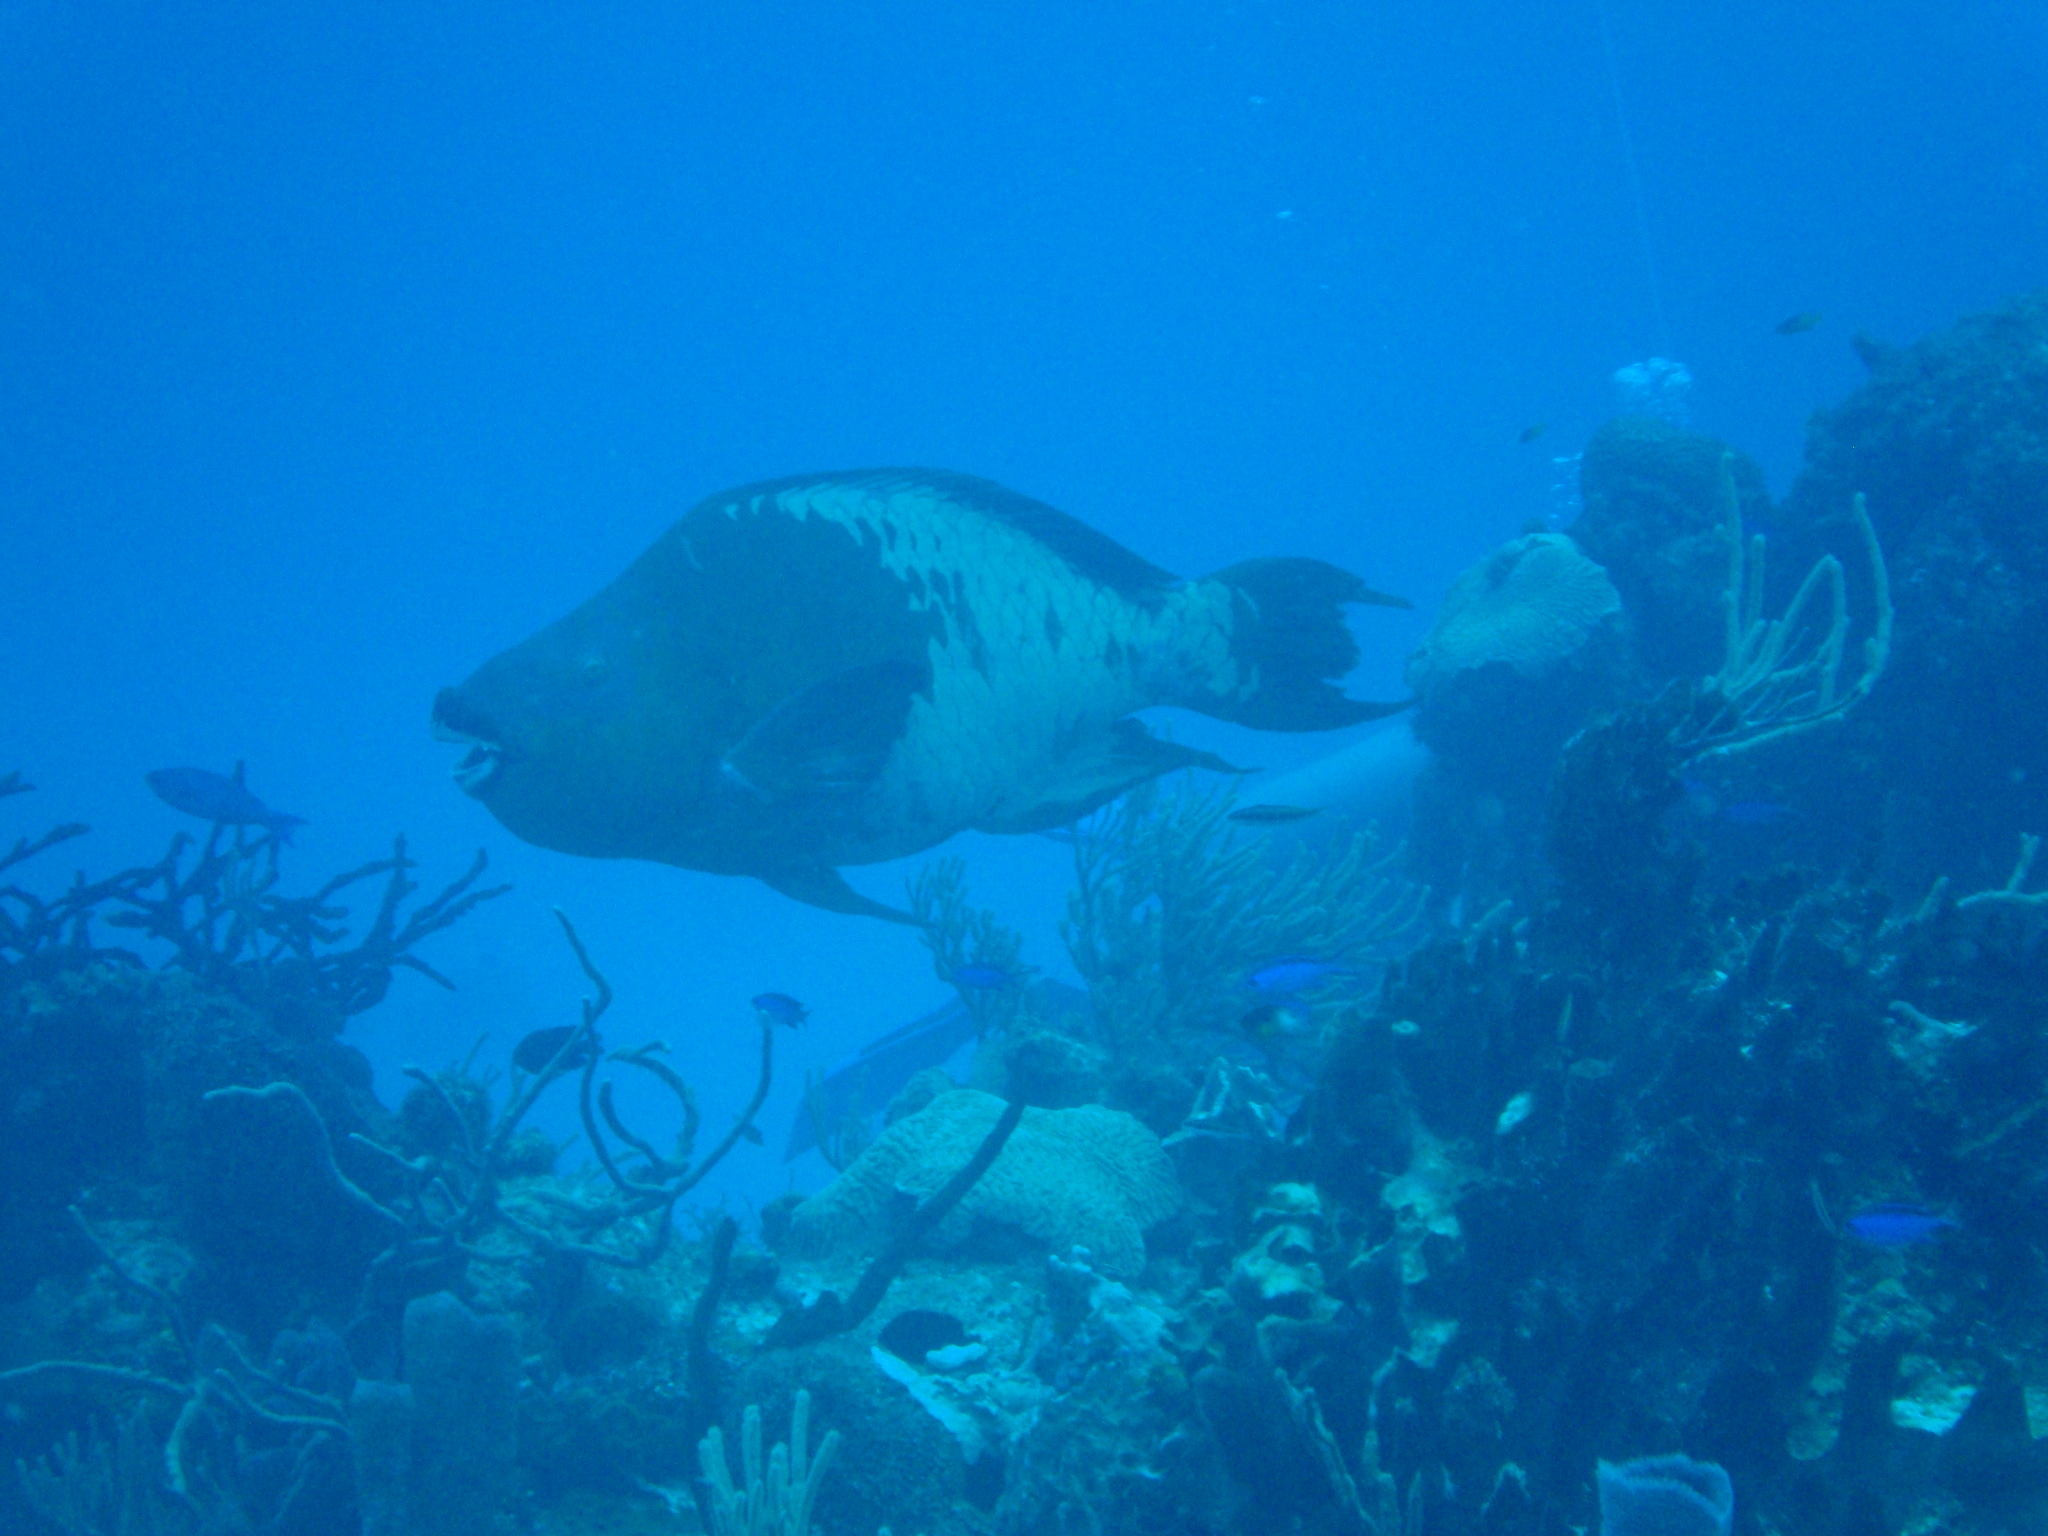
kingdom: Animalia
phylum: Chordata
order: Perciformes
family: Scaridae
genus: Scarus
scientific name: Scarus guacamaia
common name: Rainbow parrotfish
